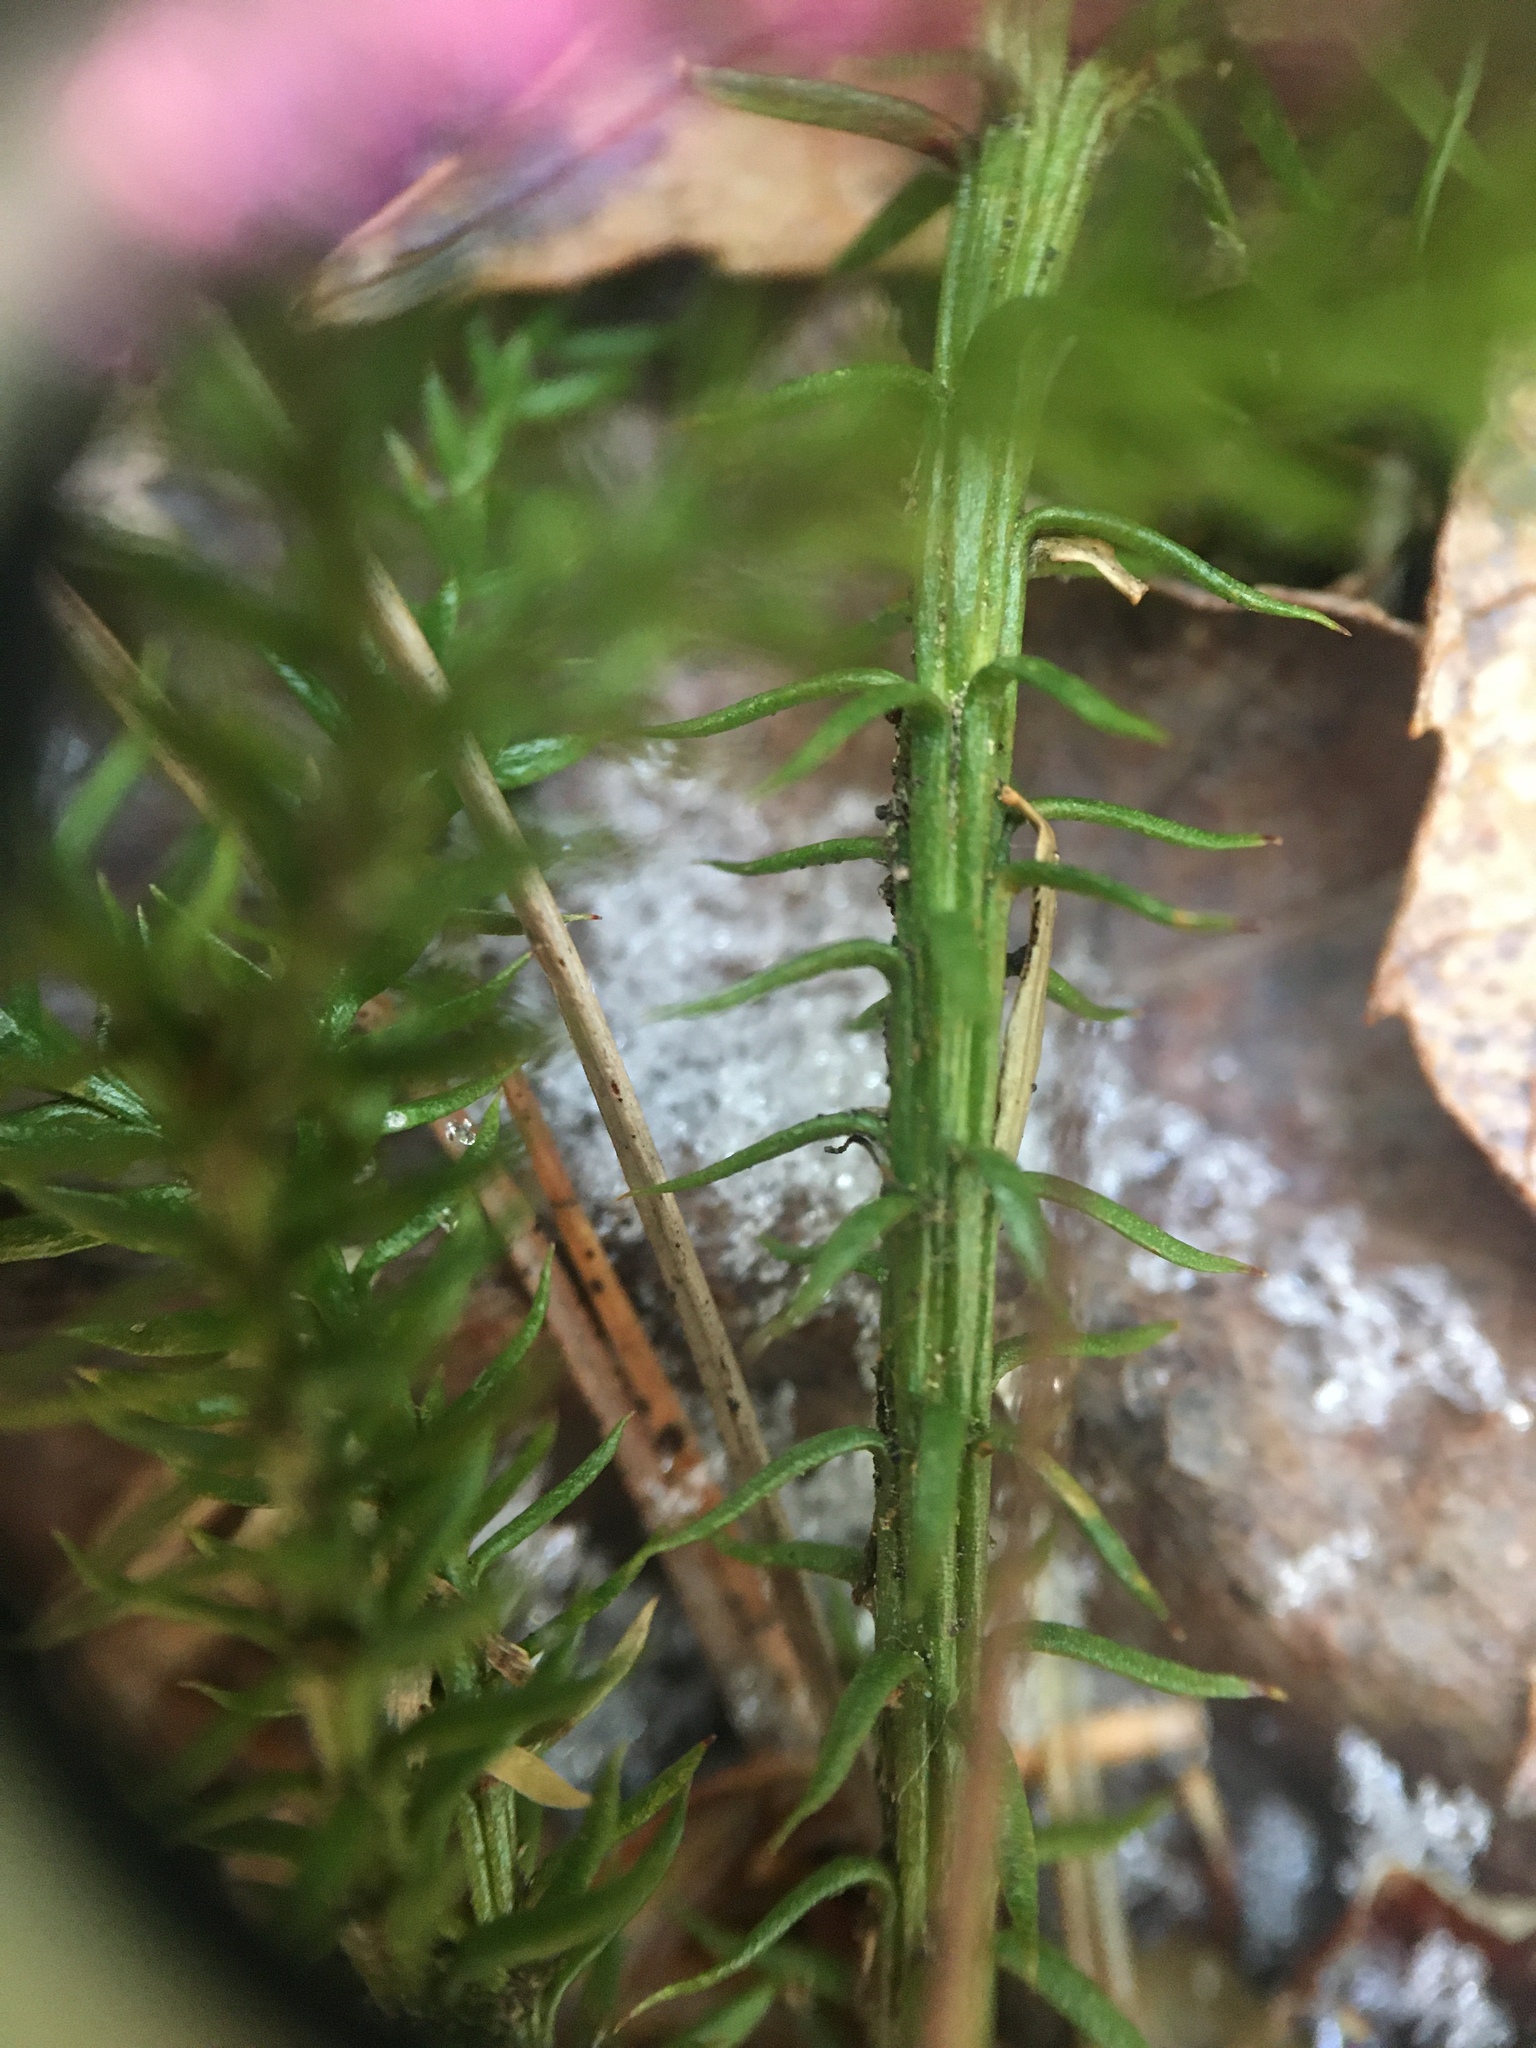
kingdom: Plantae
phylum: Tracheophyta
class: Lycopodiopsida
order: Lycopodiales
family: Lycopodiaceae
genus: Dendrolycopodium
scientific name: Dendrolycopodium dendroideum
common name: Northern tree-clubmoss
